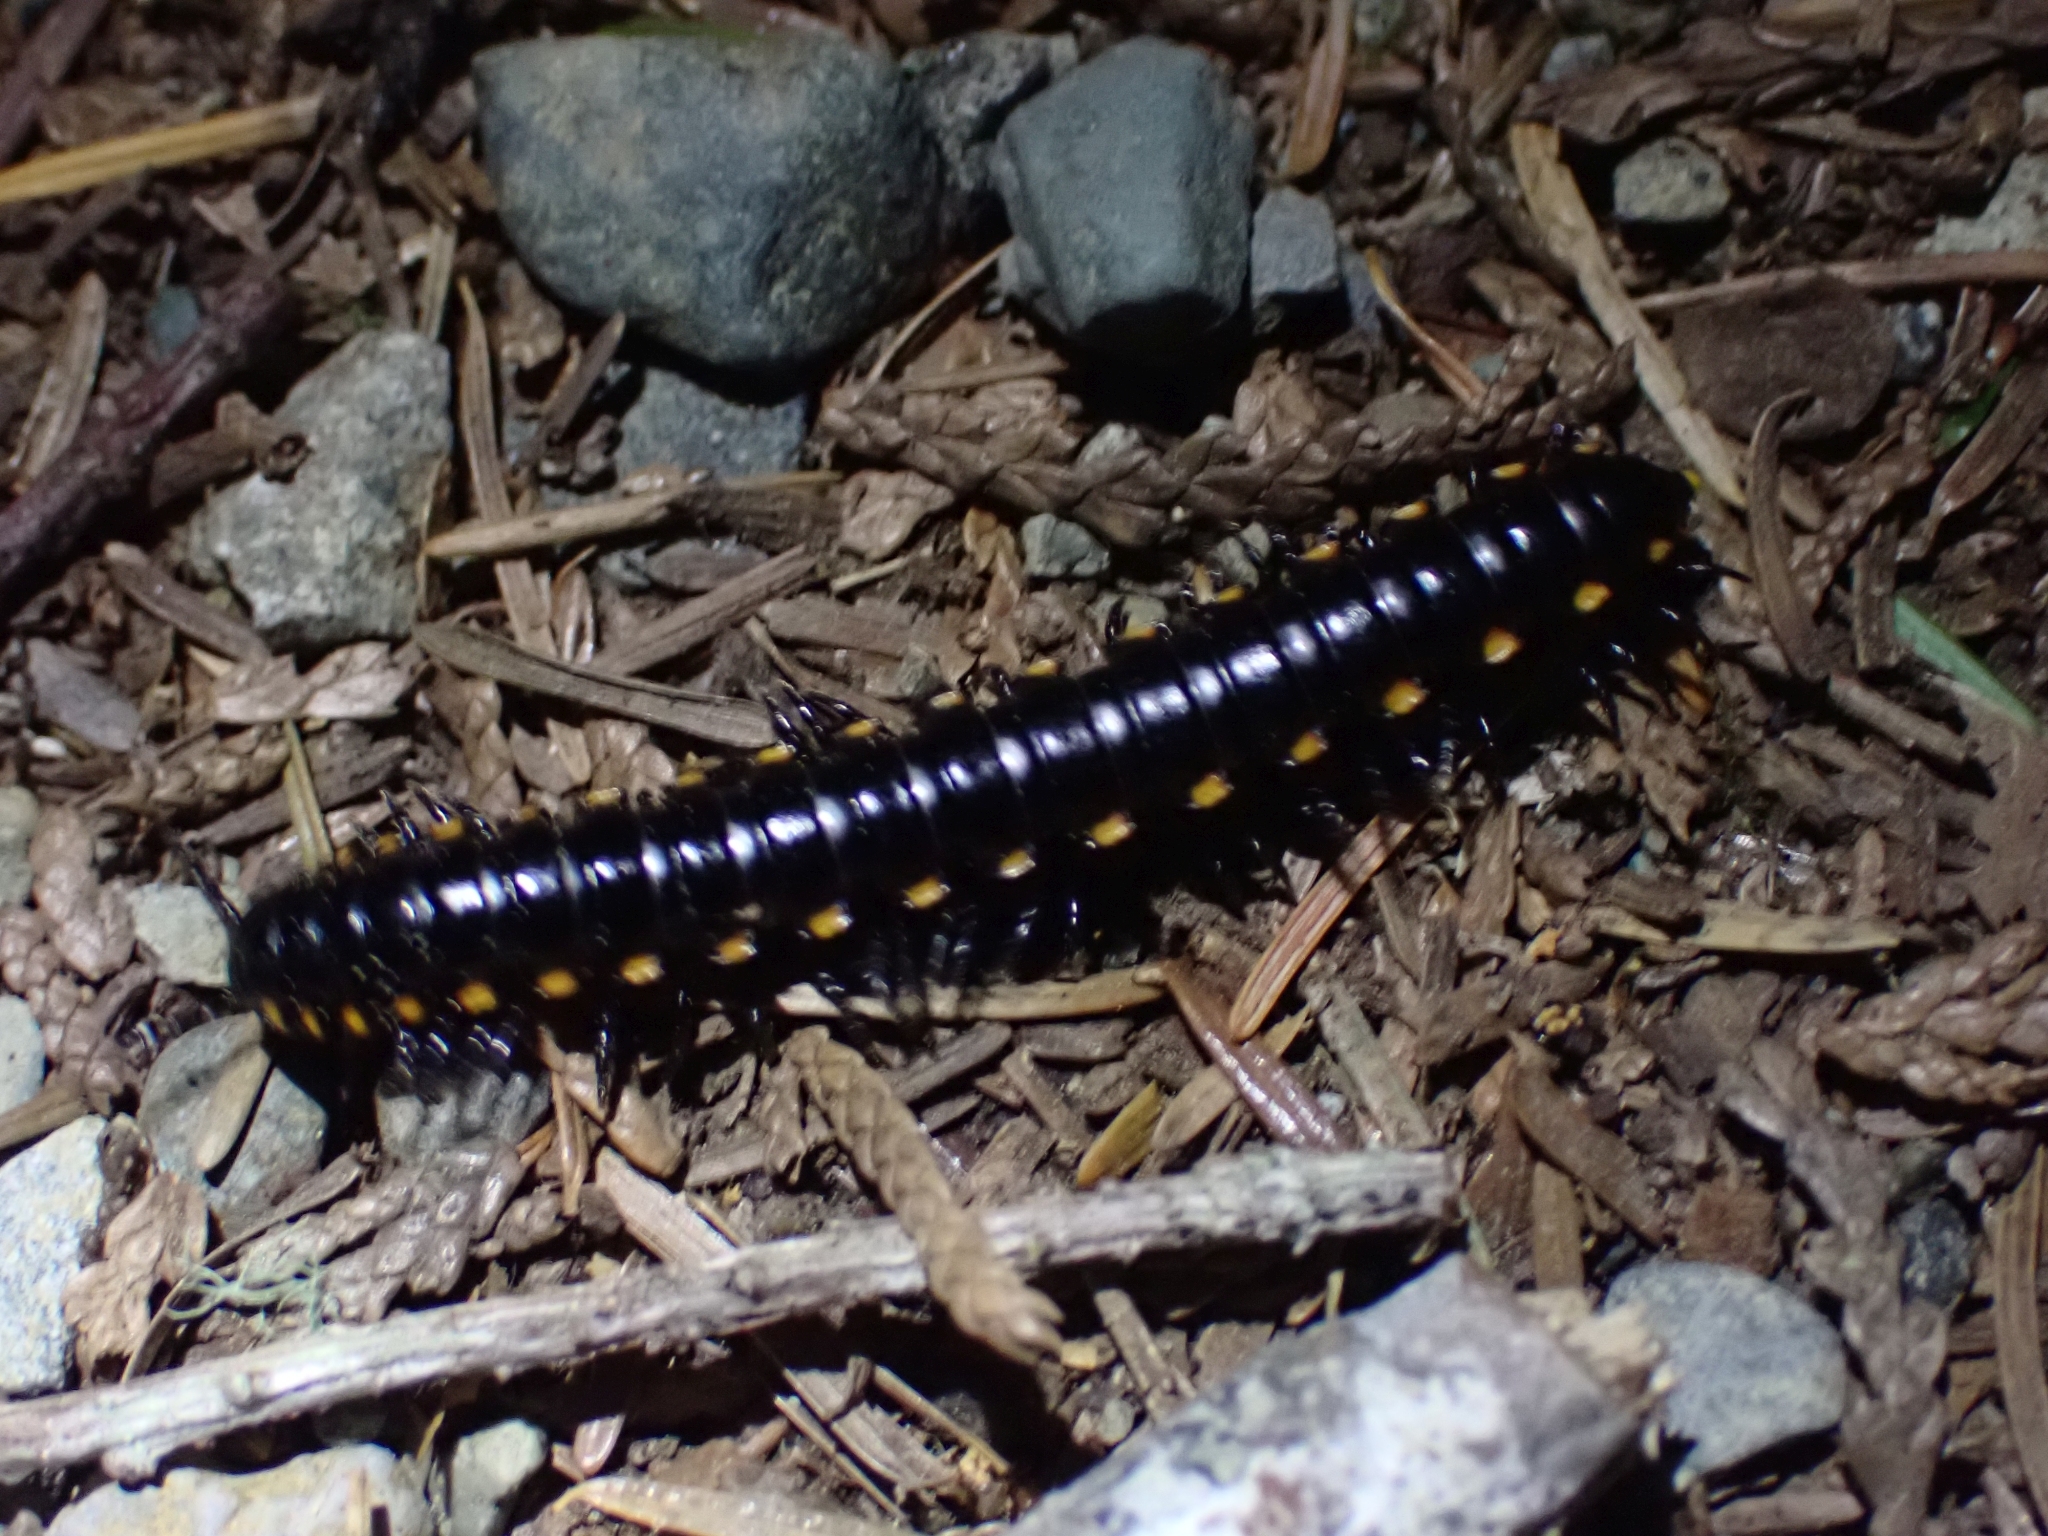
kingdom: Animalia
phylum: Arthropoda
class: Diplopoda
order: Polydesmida
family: Xystodesmidae
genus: Harpaphe
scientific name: Harpaphe haydeniana
